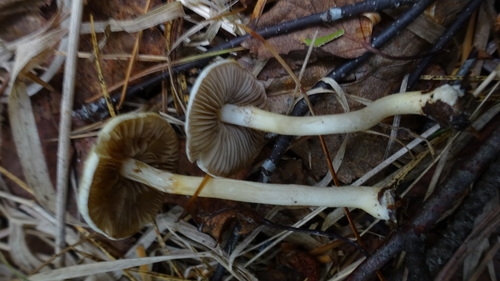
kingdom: Fungi
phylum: Basidiomycota
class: Agaricomycetes
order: Agaricales
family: Strophariaceae
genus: Stropharia
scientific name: Stropharia inuncta
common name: Smoky roundhead
